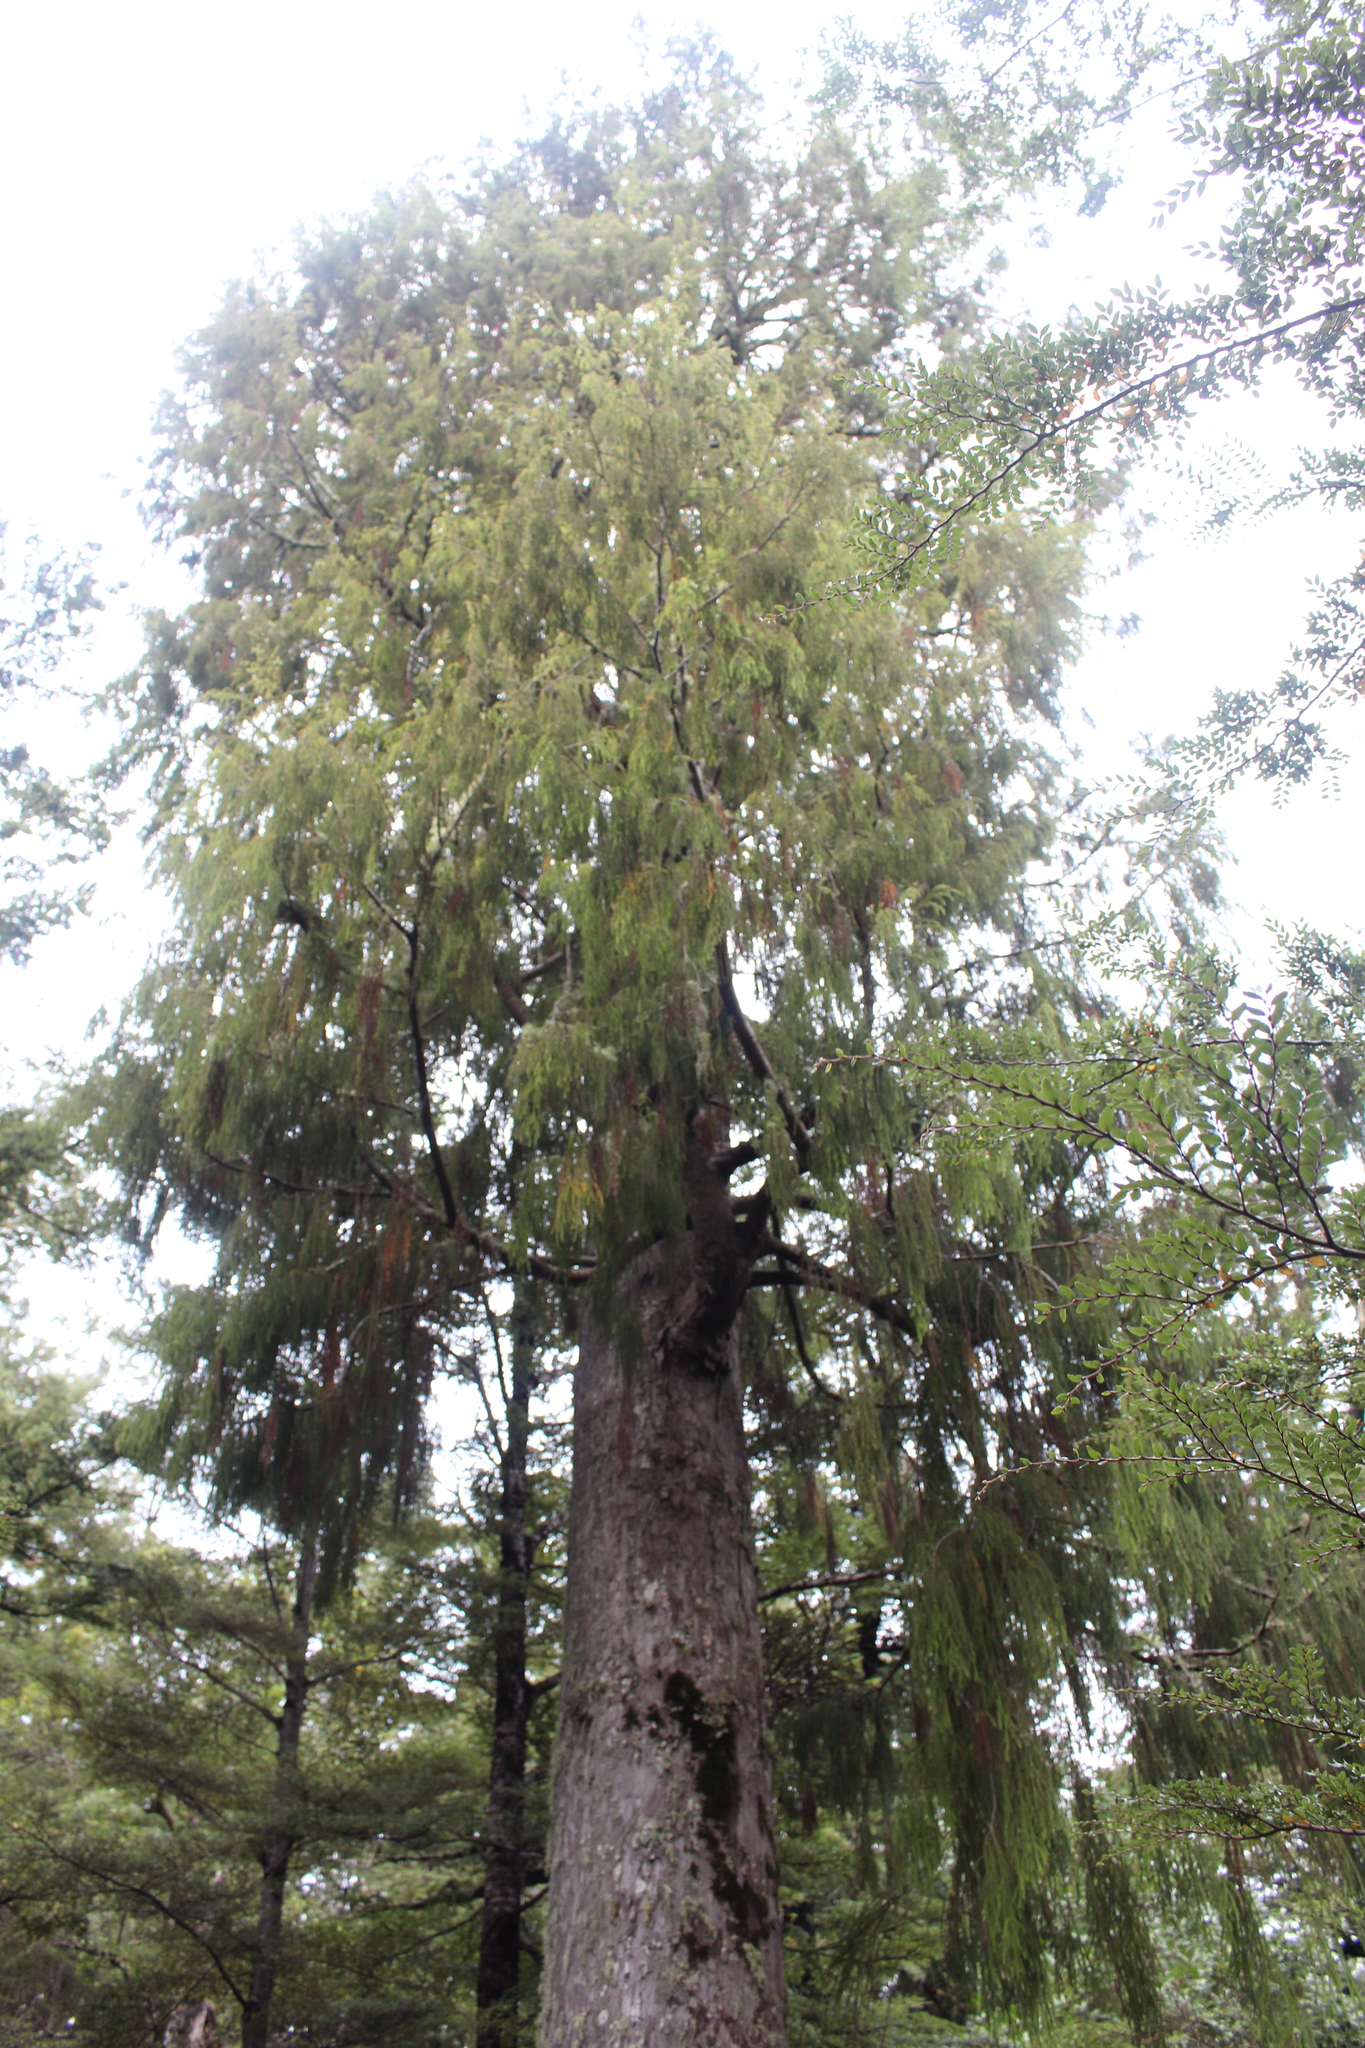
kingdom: Plantae
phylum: Tracheophyta
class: Pinopsida
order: Pinales
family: Podocarpaceae
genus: Dacrydium
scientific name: Dacrydium cupressinum
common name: Red pine
